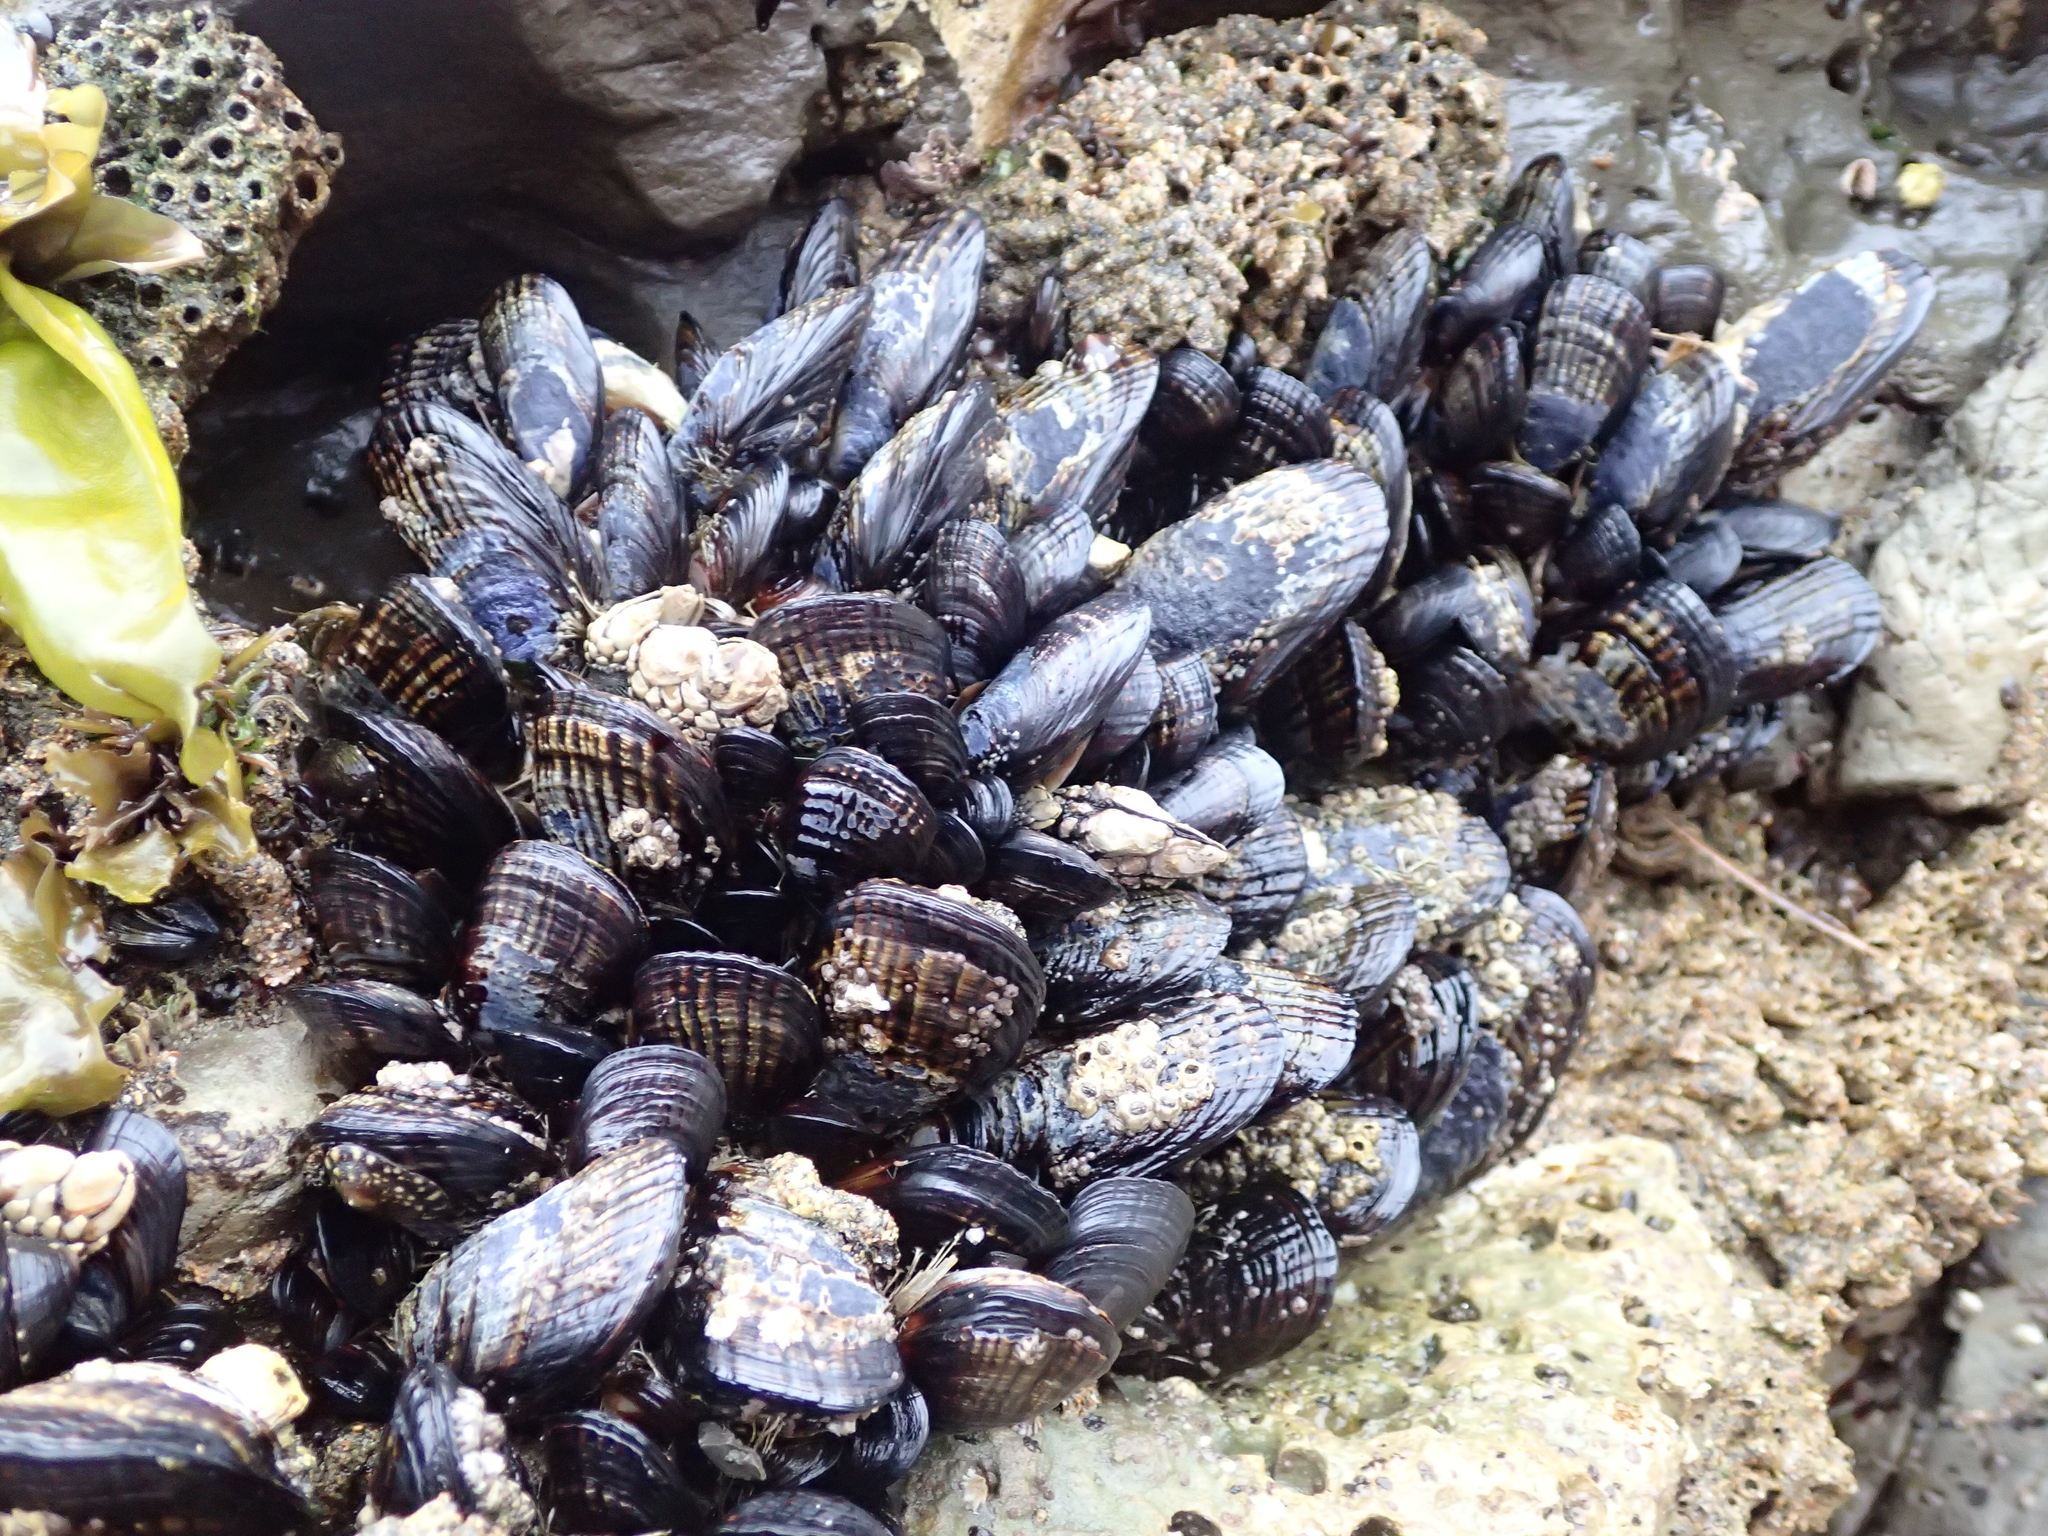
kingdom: Animalia
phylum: Mollusca
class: Bivalvia
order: Mytilida
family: Mytilidae
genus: Mytilus
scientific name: Mytilus californianus
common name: California mussel
